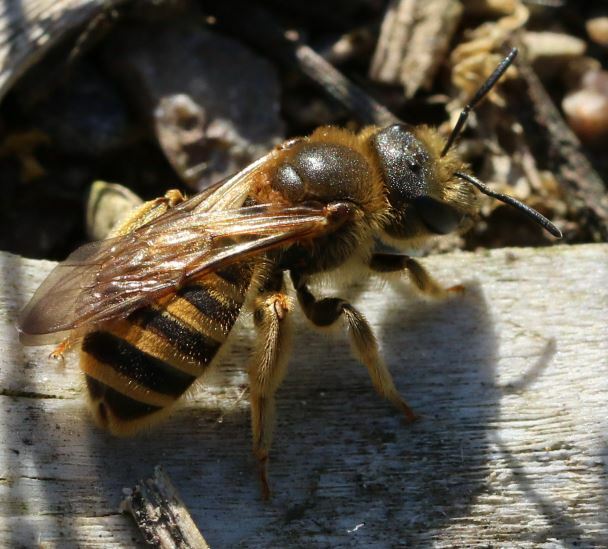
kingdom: Animalia
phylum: Arthropoda
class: Insecta
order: Hymenoptera
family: Halictidae
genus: Halictus
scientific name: Halictus scabiosae
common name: Great banded furrow bee
